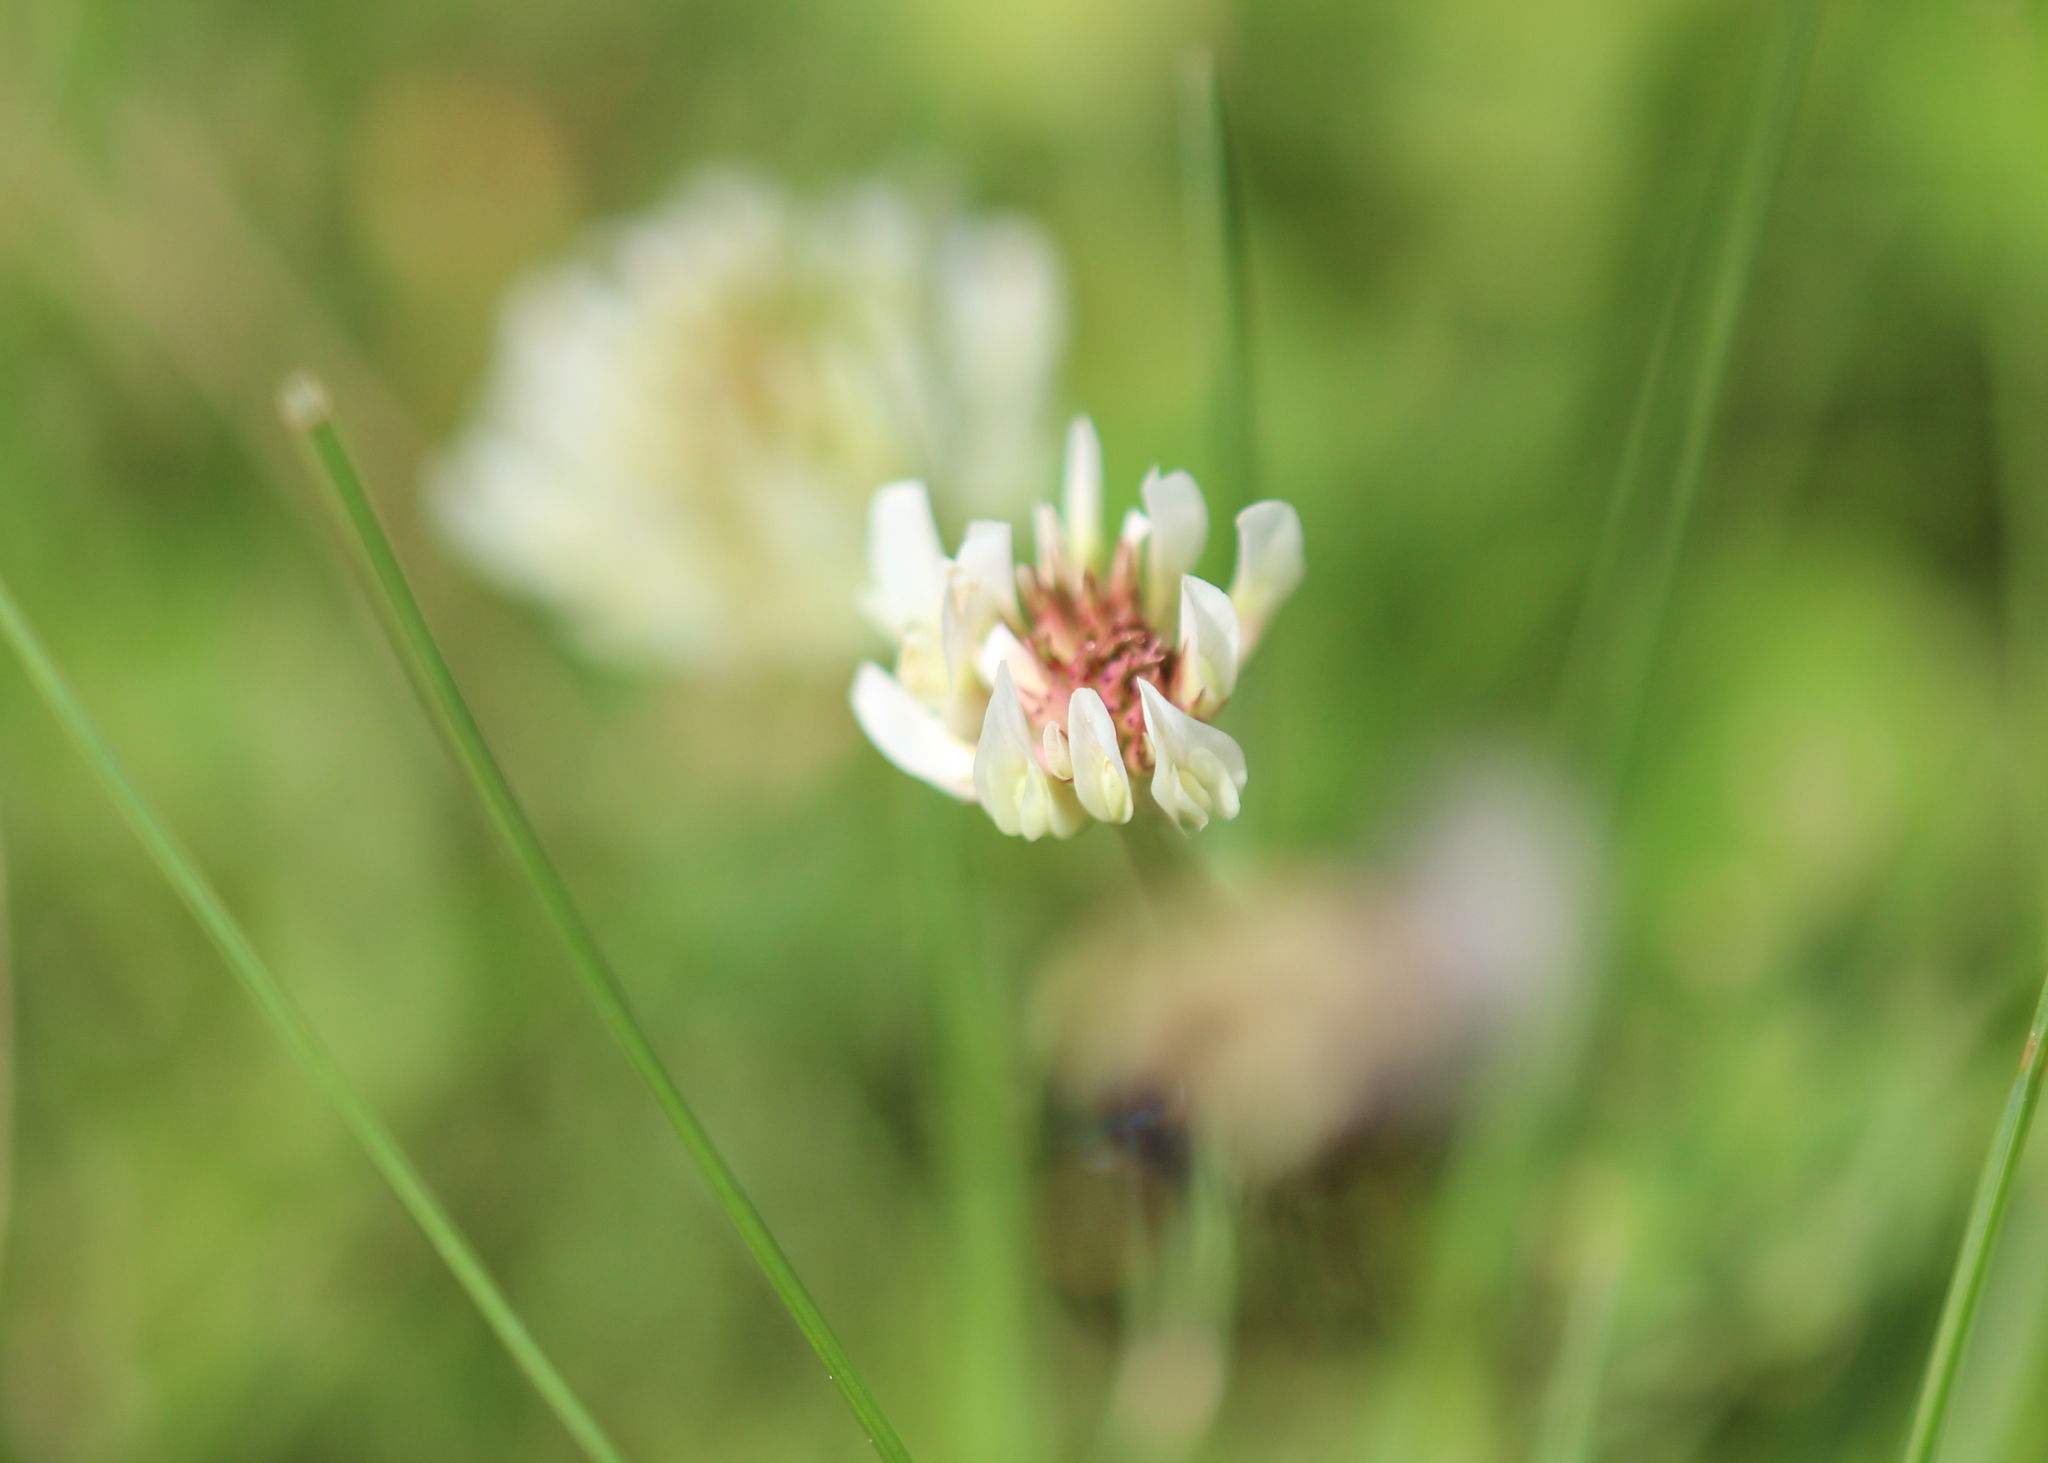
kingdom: Plantae
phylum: Tracheophyta
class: Magnoliopsida
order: Fabales
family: Fabaceae
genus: Trifolium
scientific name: Trifolium repens
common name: White clover
